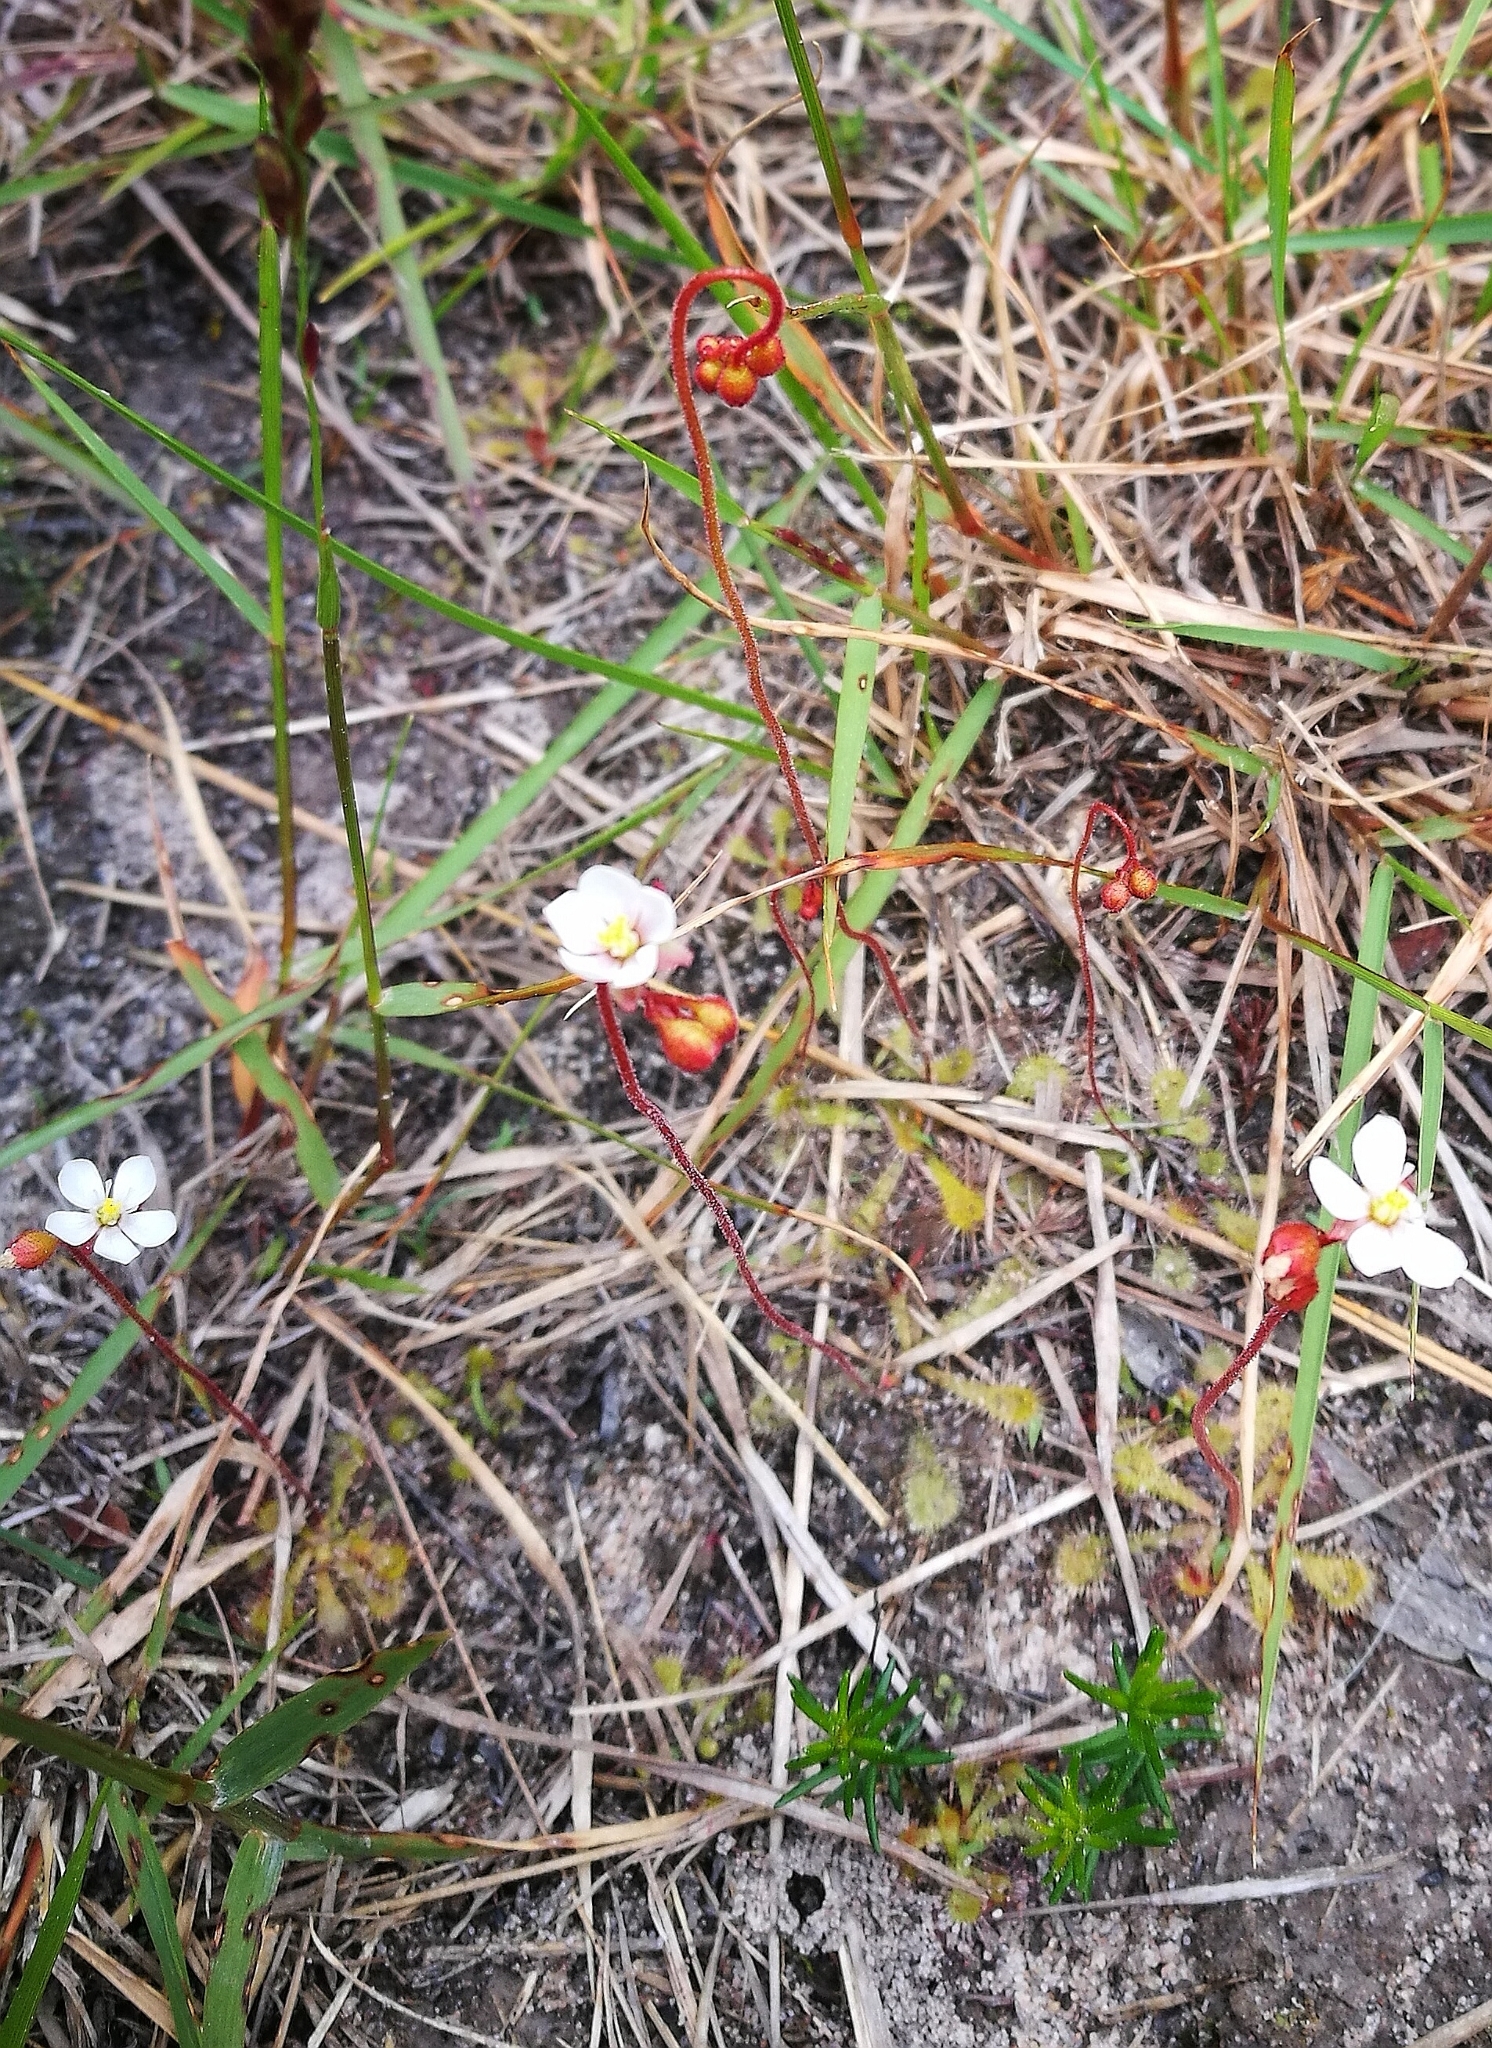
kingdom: Plantae
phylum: Tracheophyta
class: Magnoliopsida
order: Caryophyllales
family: Droseraceae
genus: Drosera
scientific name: Drosera natalensis
